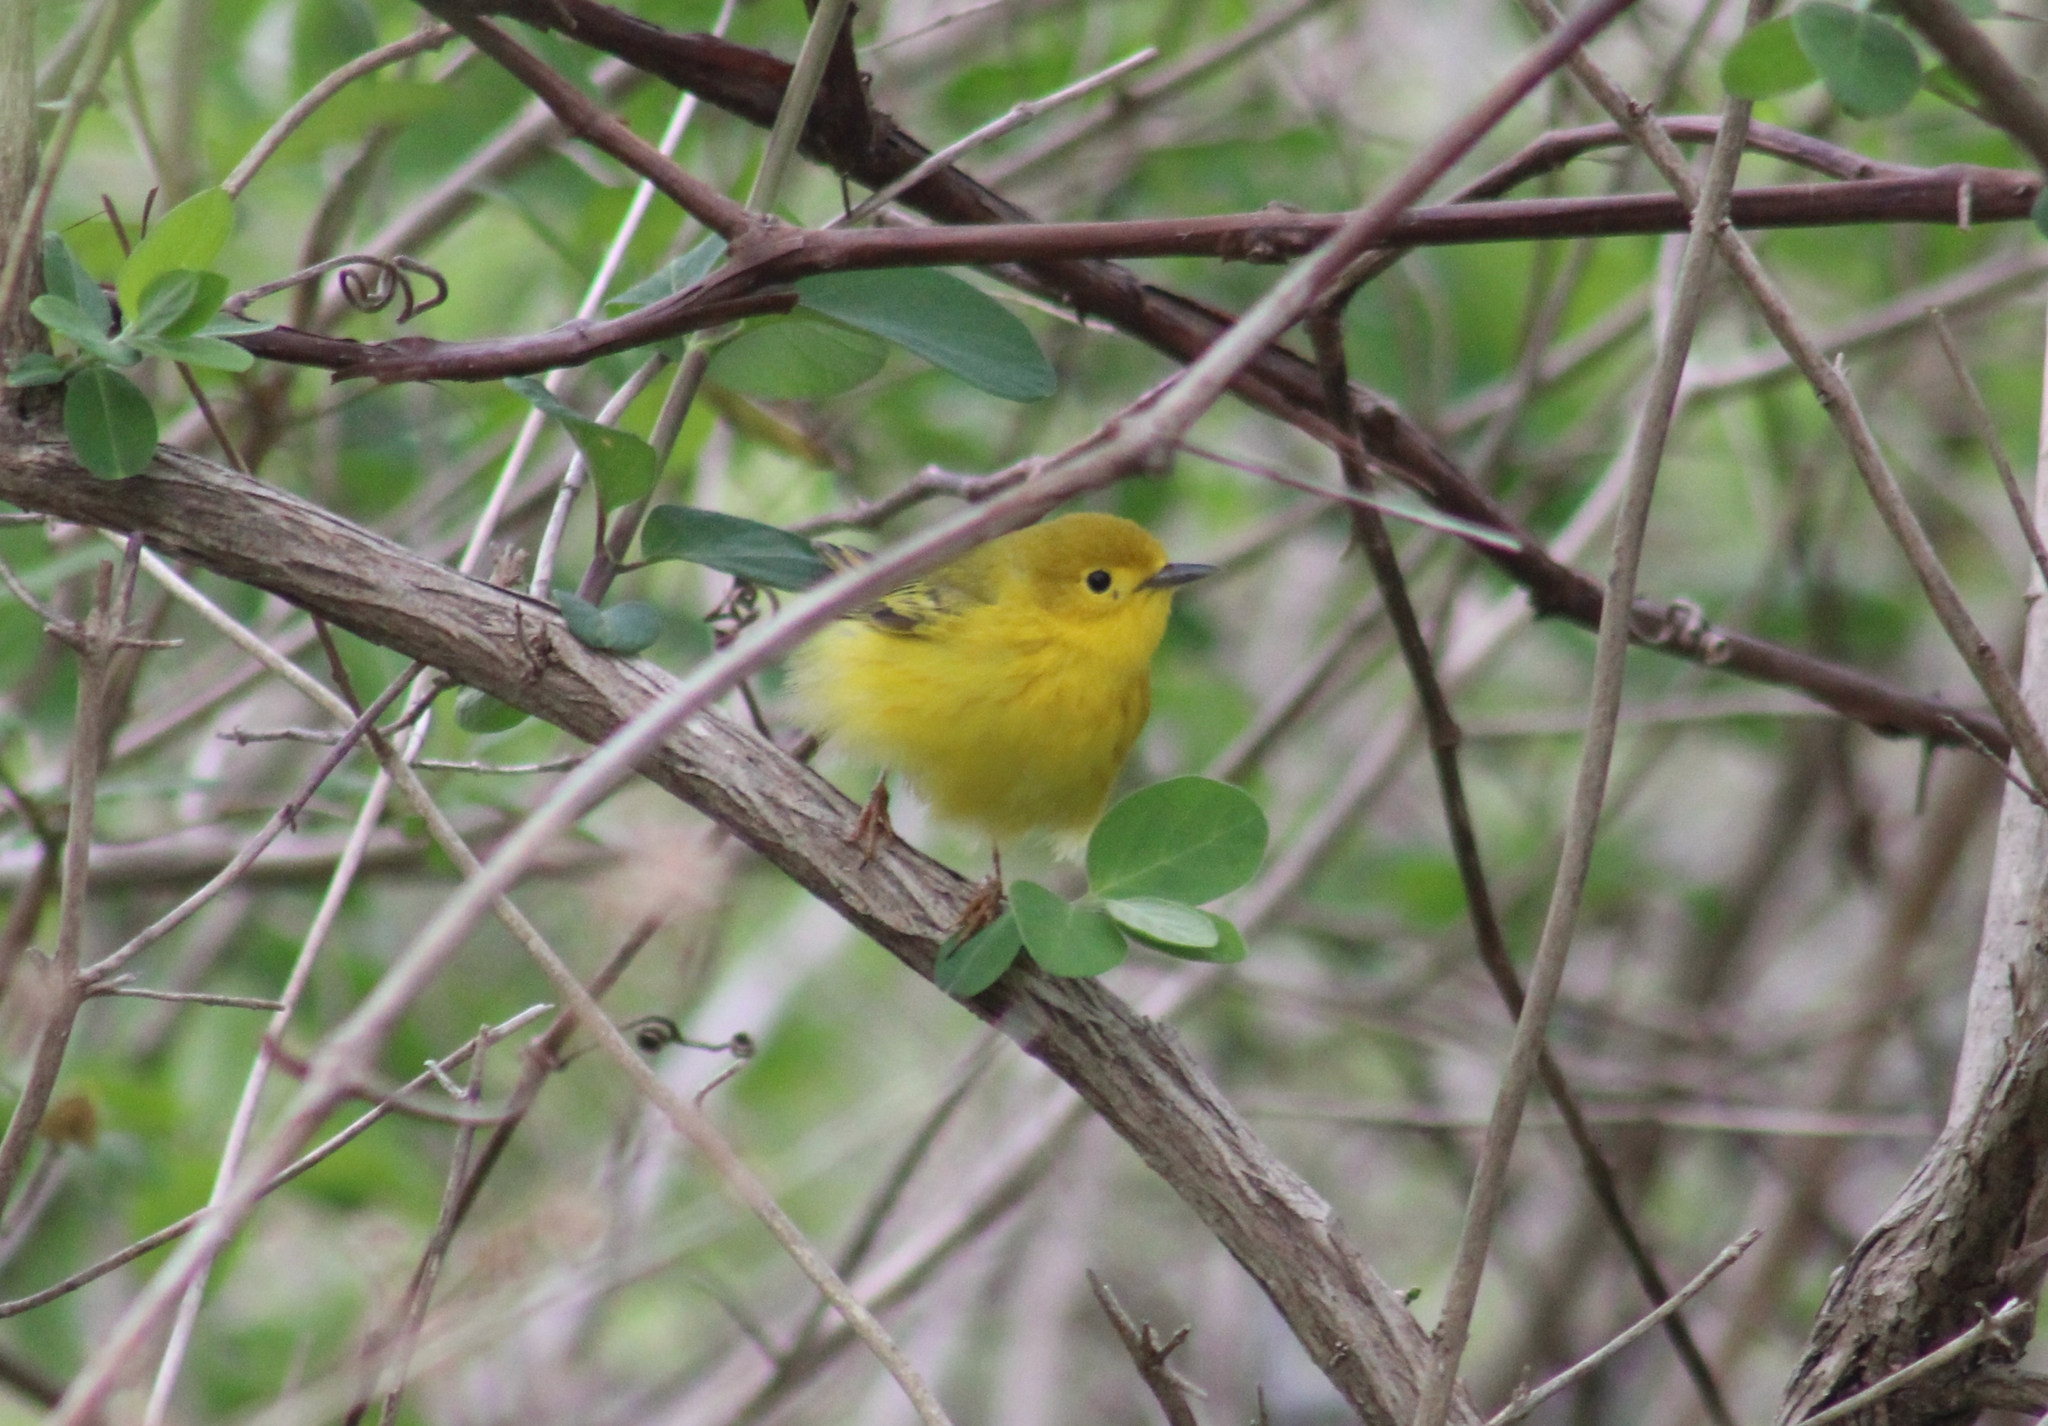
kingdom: Animalia
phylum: Chordata
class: Aves
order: Passeriformes
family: Parulidae
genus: Setophaga
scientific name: Setophaga petechia
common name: Yellow warbler
